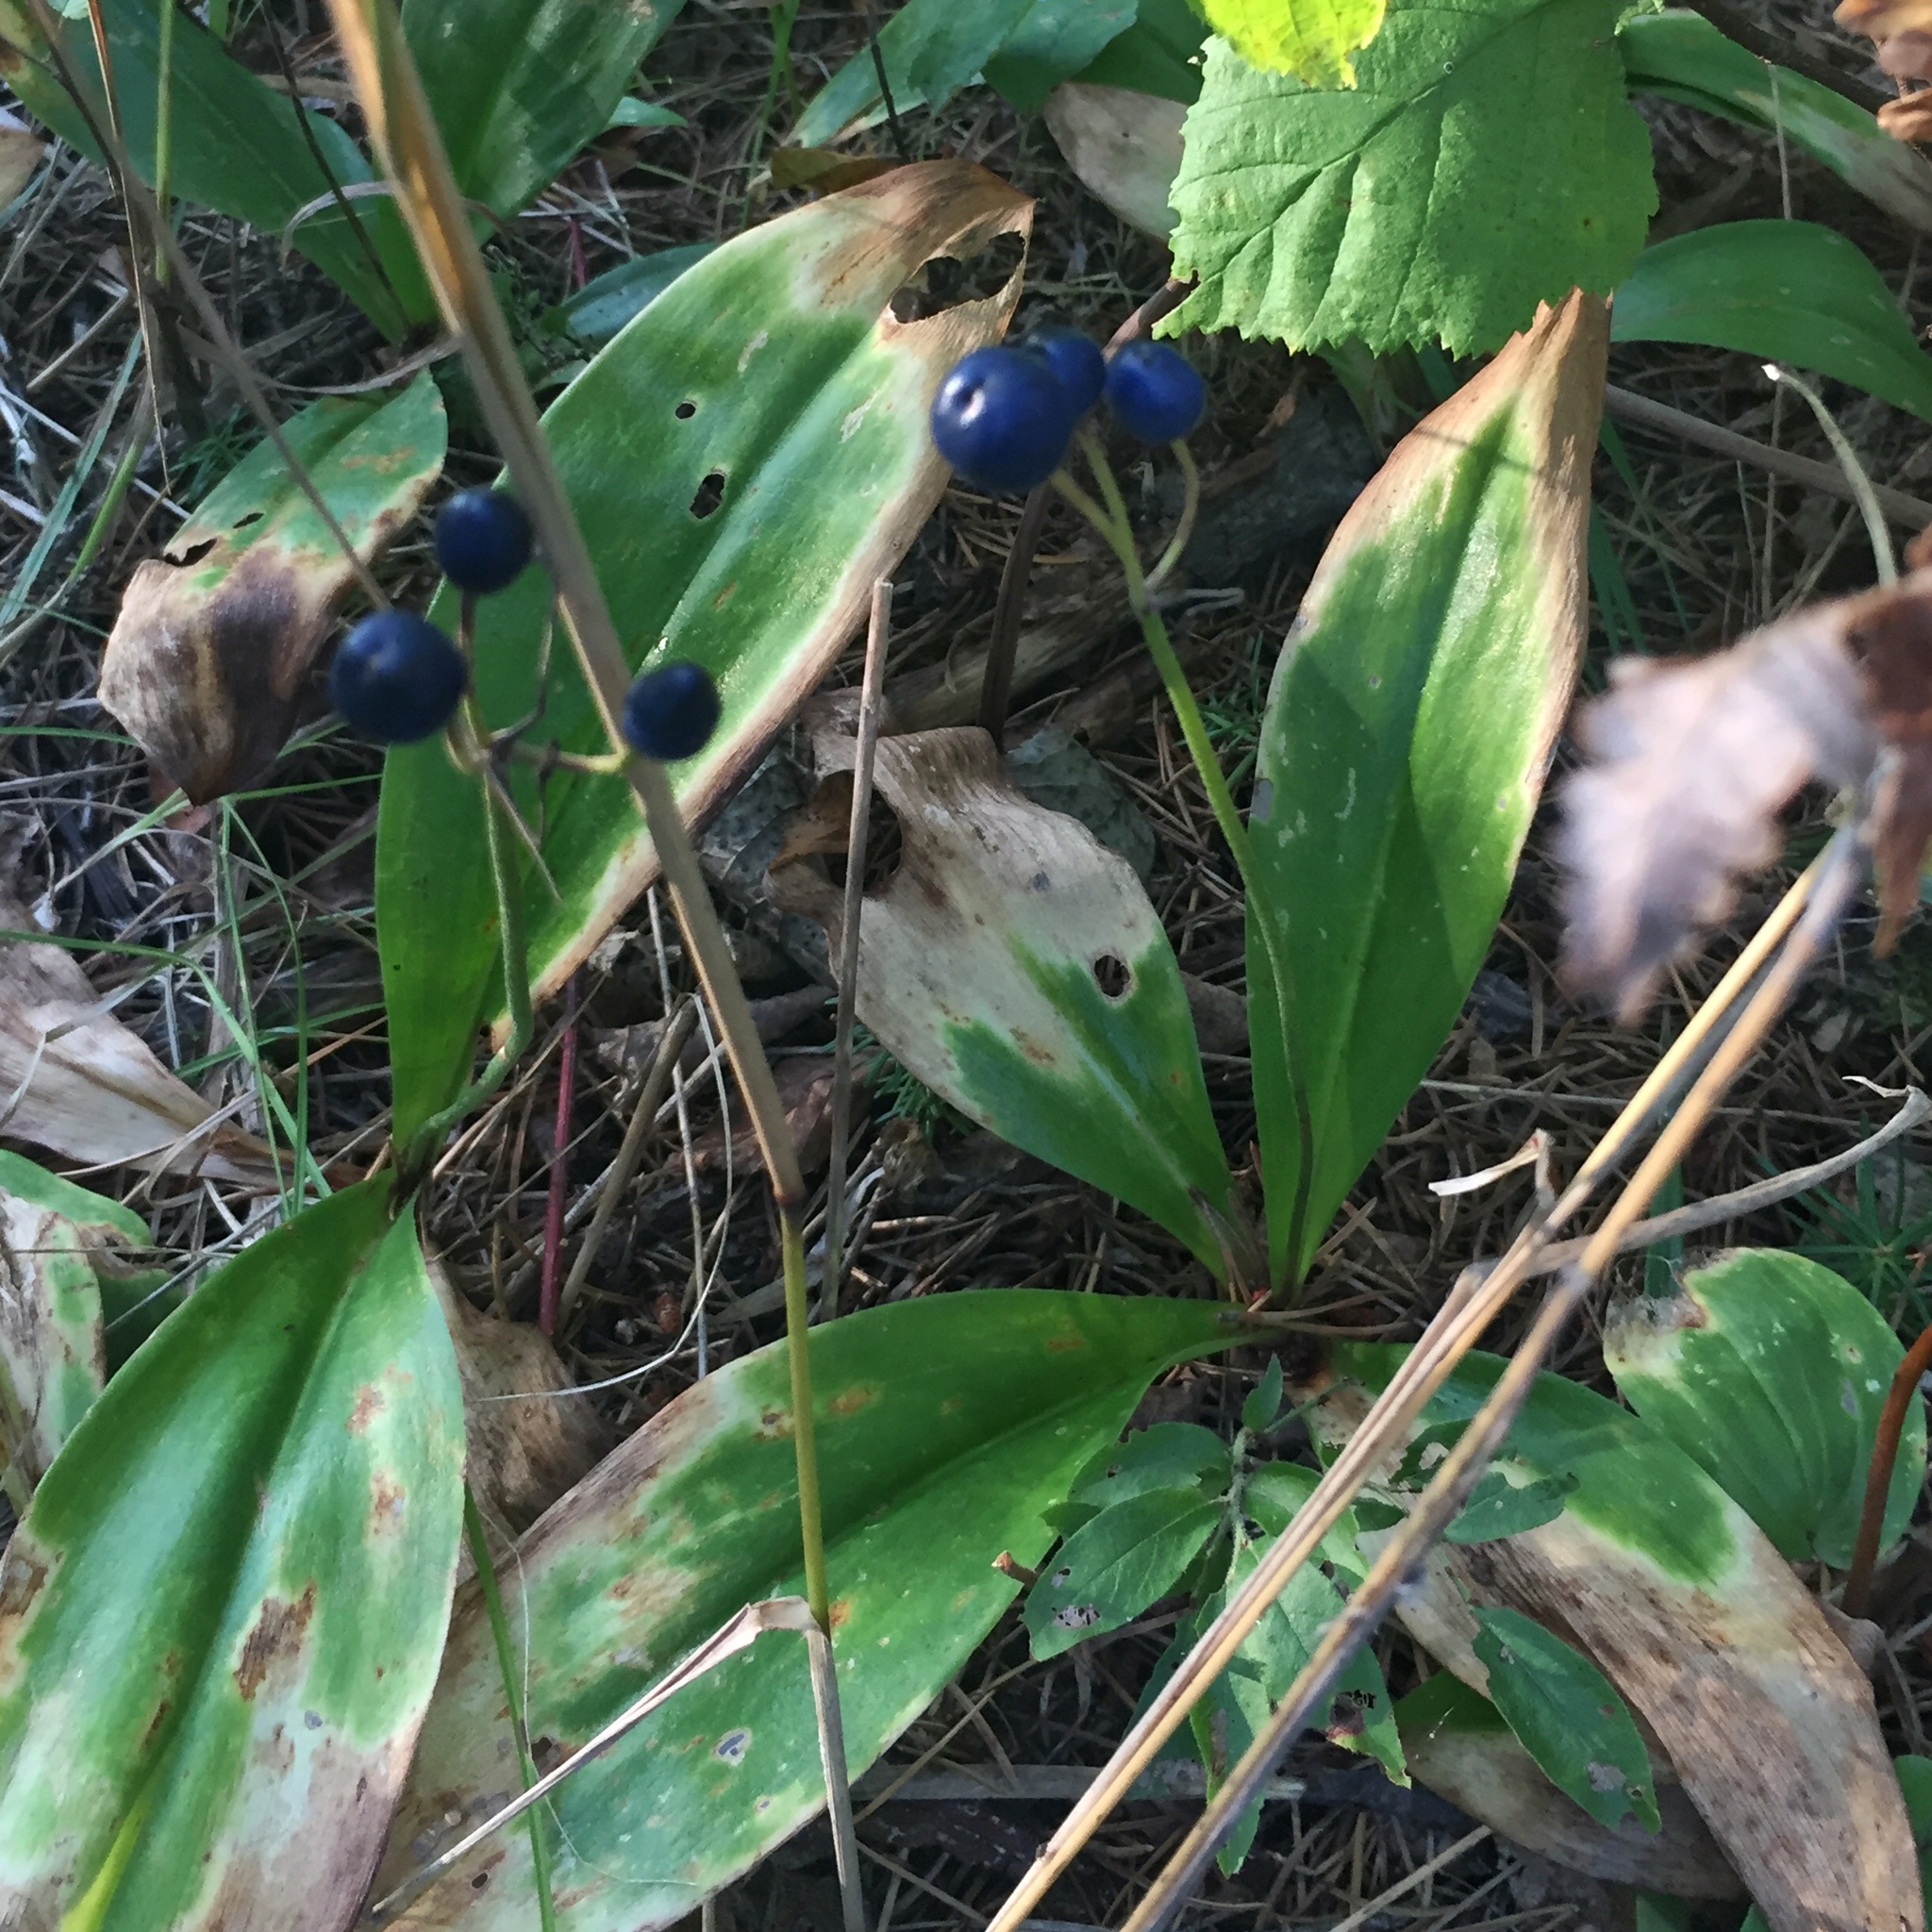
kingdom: Plantae
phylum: Tracheophyta
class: Liliopsida
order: Liliales
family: Liliaceae
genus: Clintonia
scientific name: Clintonia borealis
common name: Yellow clintonia
